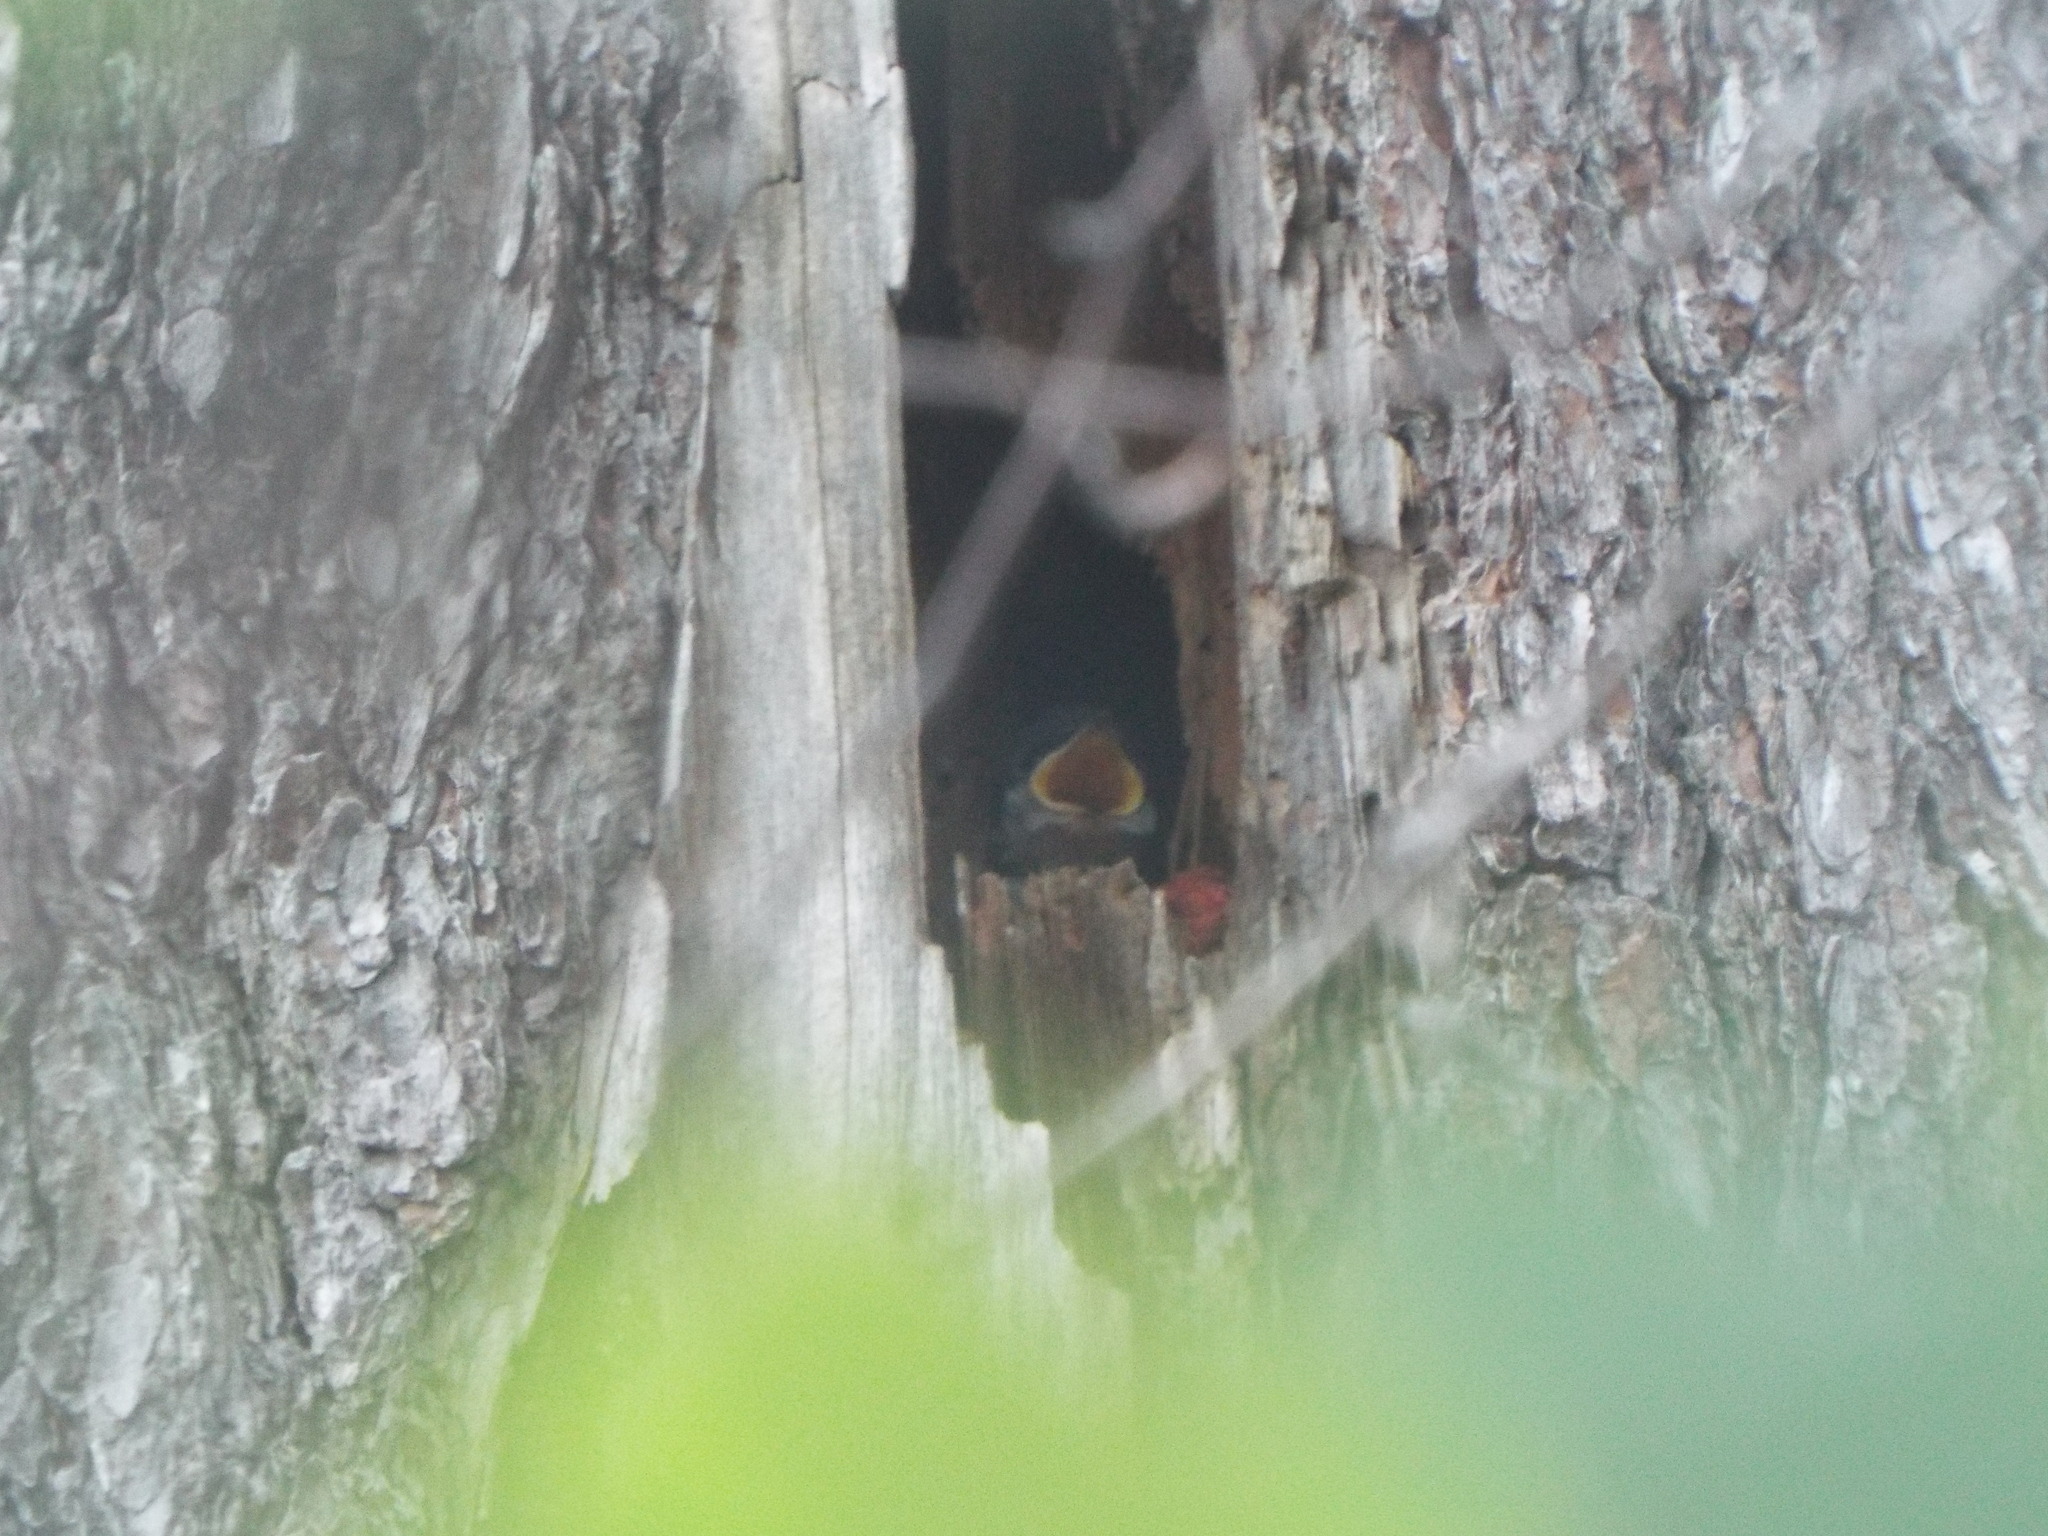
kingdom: Animalia
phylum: Chordata
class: Aves
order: Passeriformes
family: Hirundinidae
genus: Tachycineta
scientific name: Tachycineta bicolor
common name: Tree swallow
